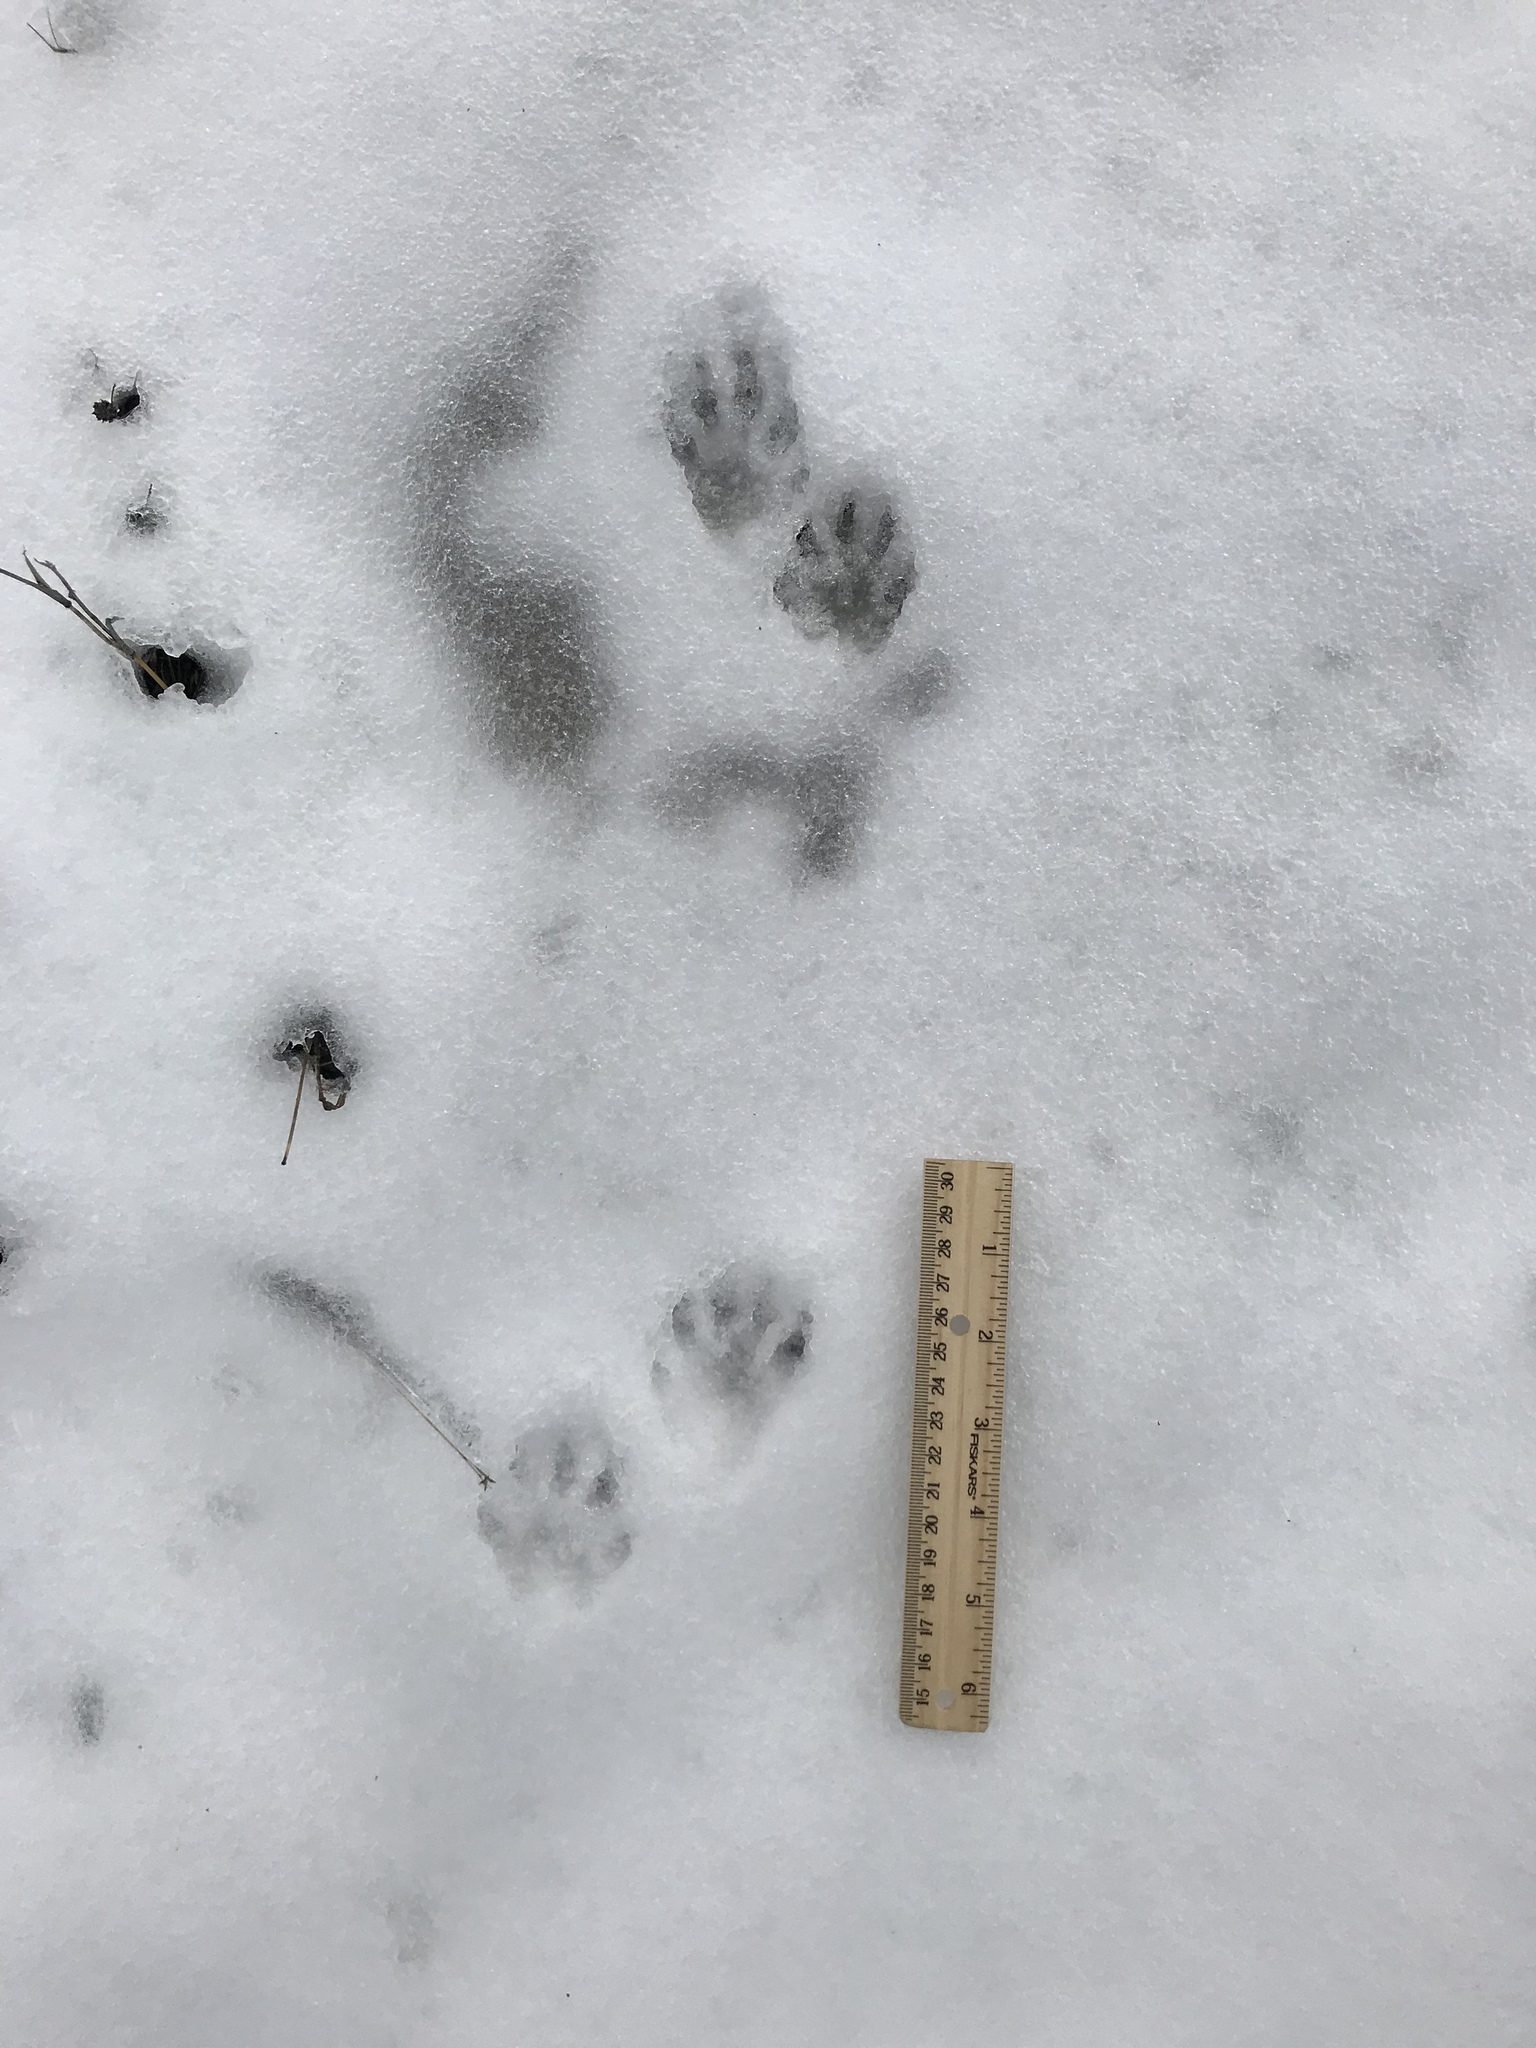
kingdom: Animalia
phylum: Chordata
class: Mammalia
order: Carnivora
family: Procyonidae
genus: Procyon
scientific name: Procyon lotor
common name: Raccoon
